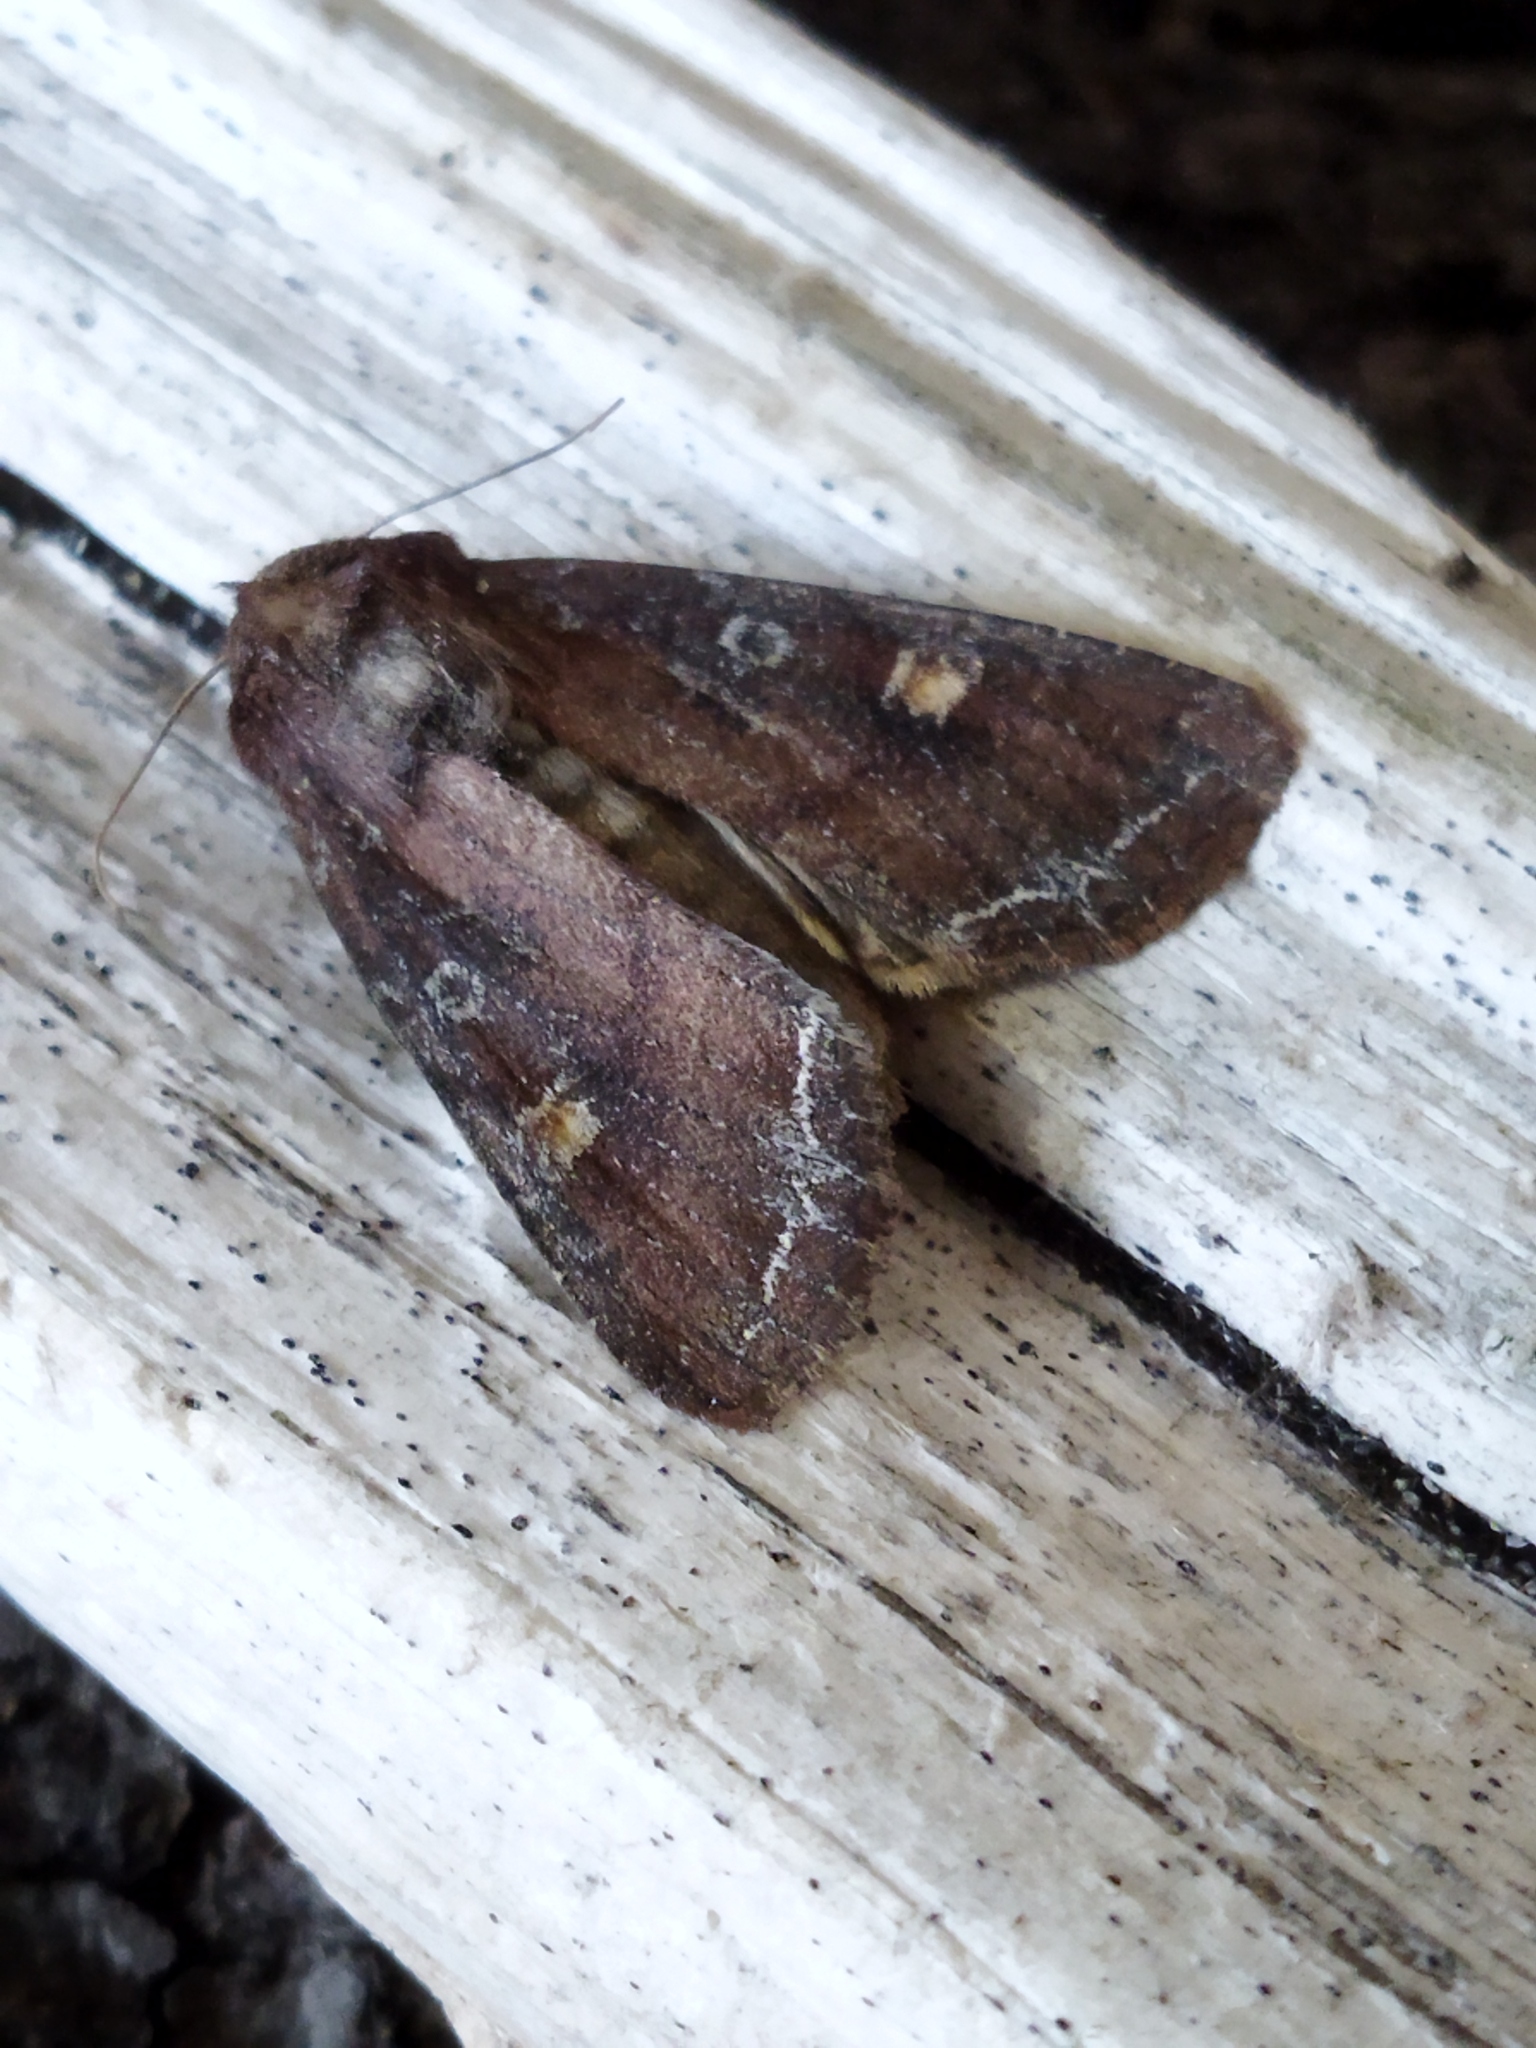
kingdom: Animalia
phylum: Arthropoda
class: Insecta
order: Lepidoptera
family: Noctuidae
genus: Lacanobia
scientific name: Lacanobia oleracea
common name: Bright-line brown-eye
